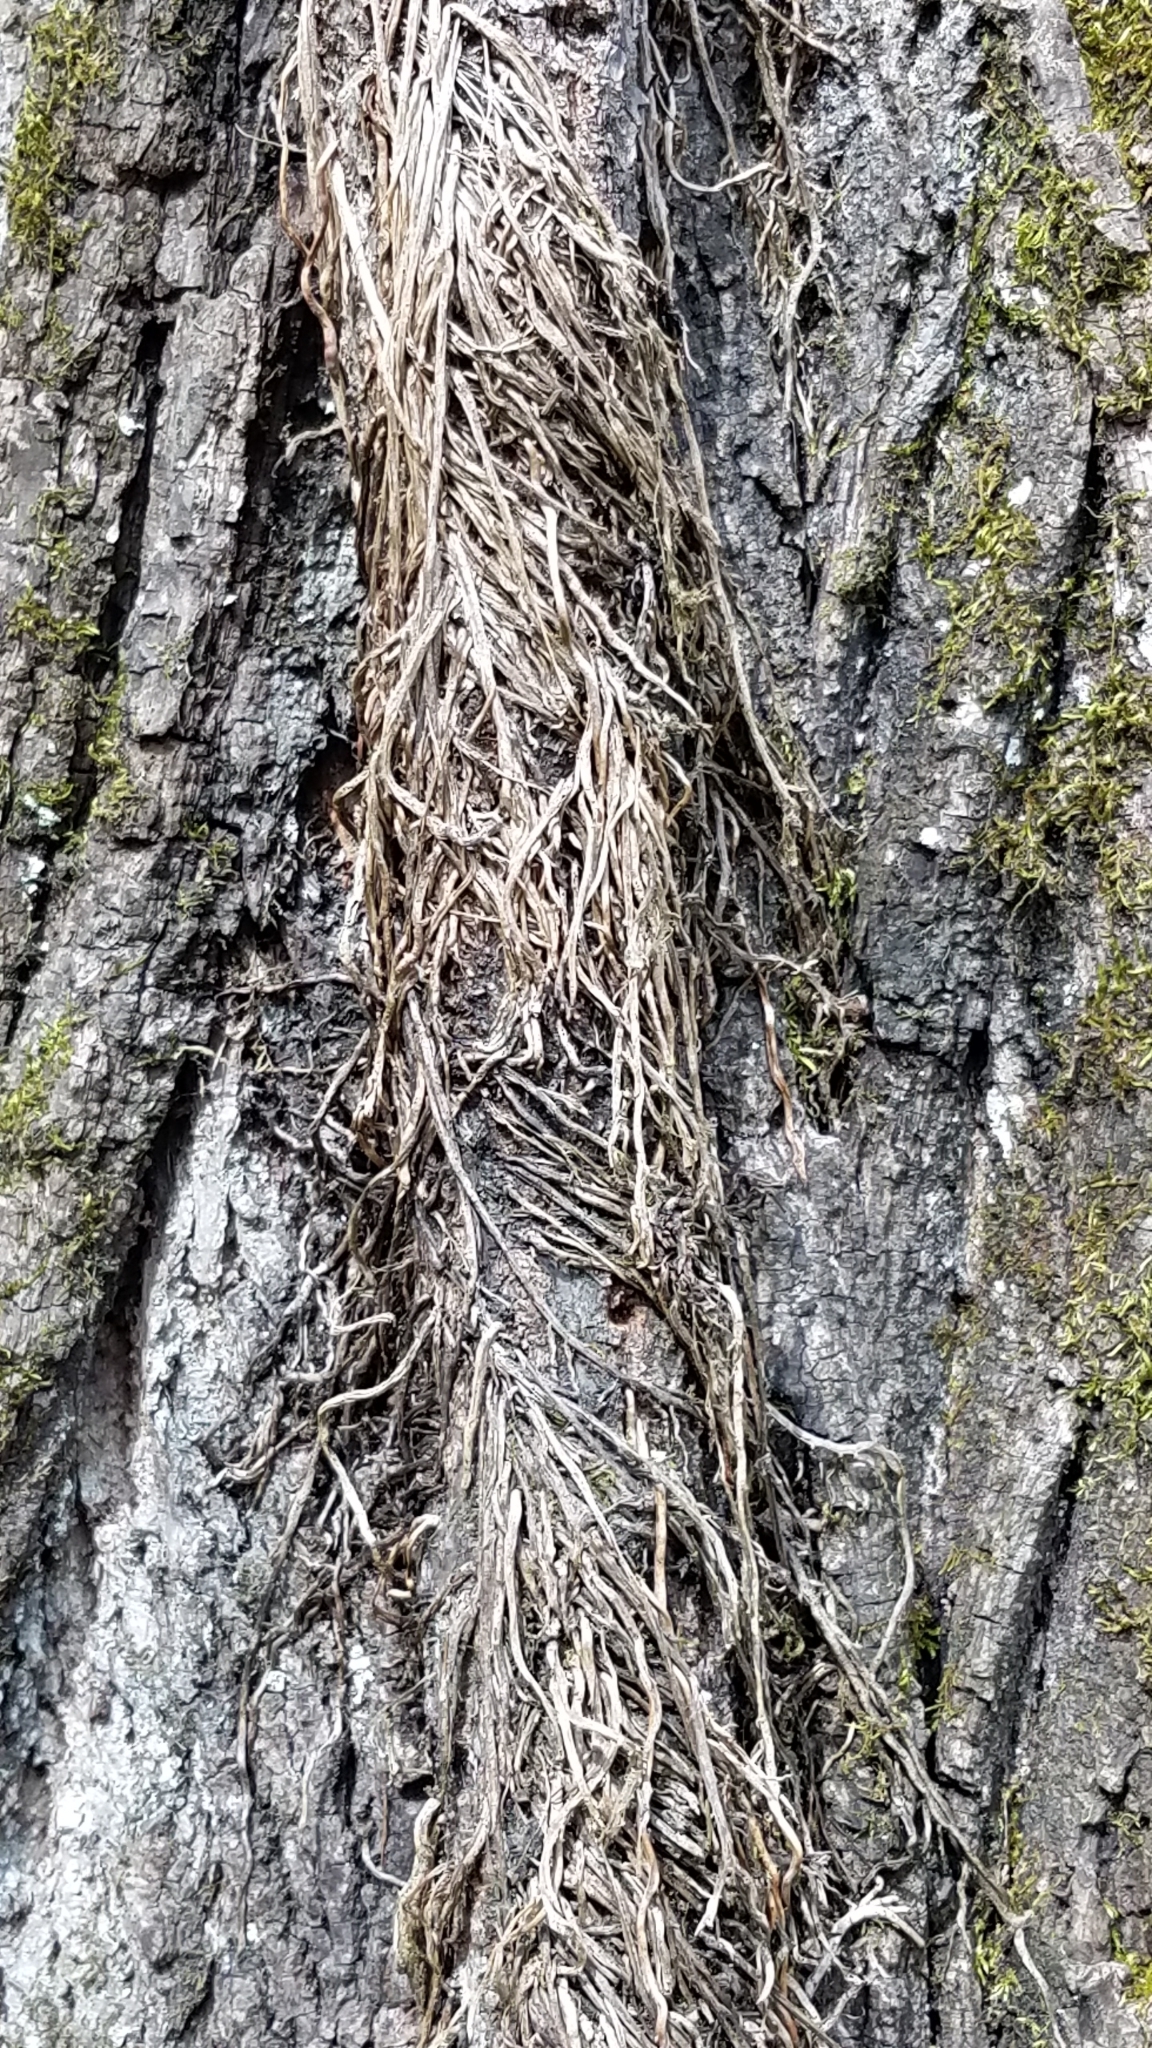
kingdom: Plantae
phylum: Tracheophyta
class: Magnoliopsida
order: Sapindales
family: Anacardiaceae
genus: Toxicodendron
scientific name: Toxicodendron radicans
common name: Poison ivy
